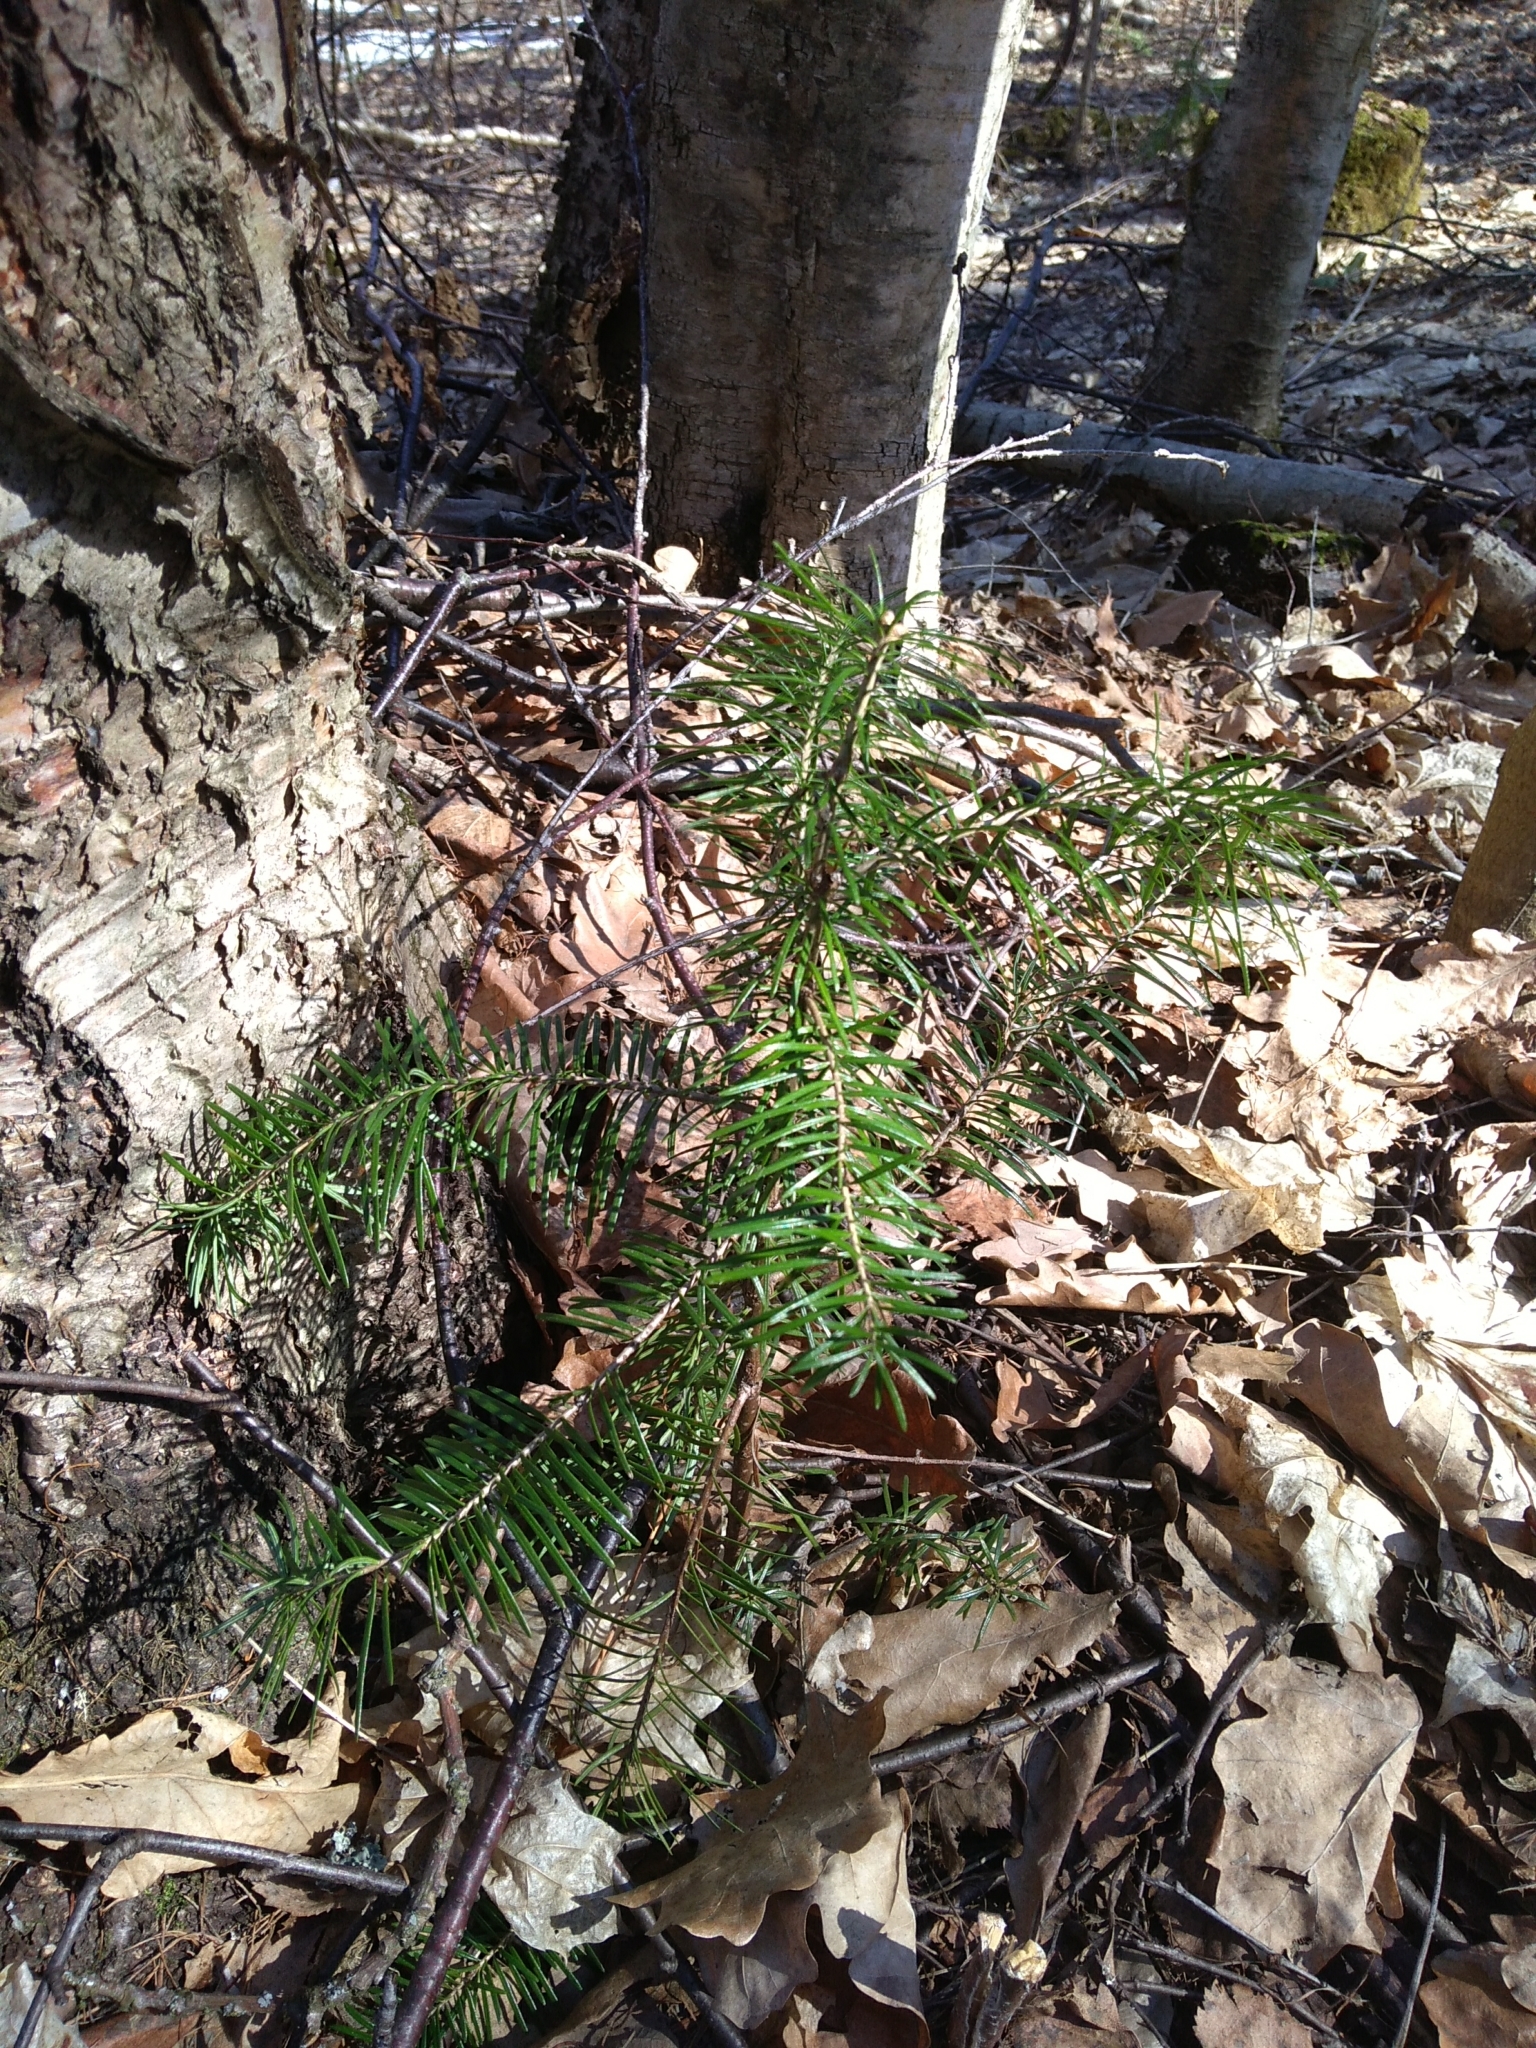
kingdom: Plantae
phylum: Tracheophyta
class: Pinopsida
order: Pinales
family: Pinaceae
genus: Abies
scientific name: Abies sibirica
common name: Siberian fir
